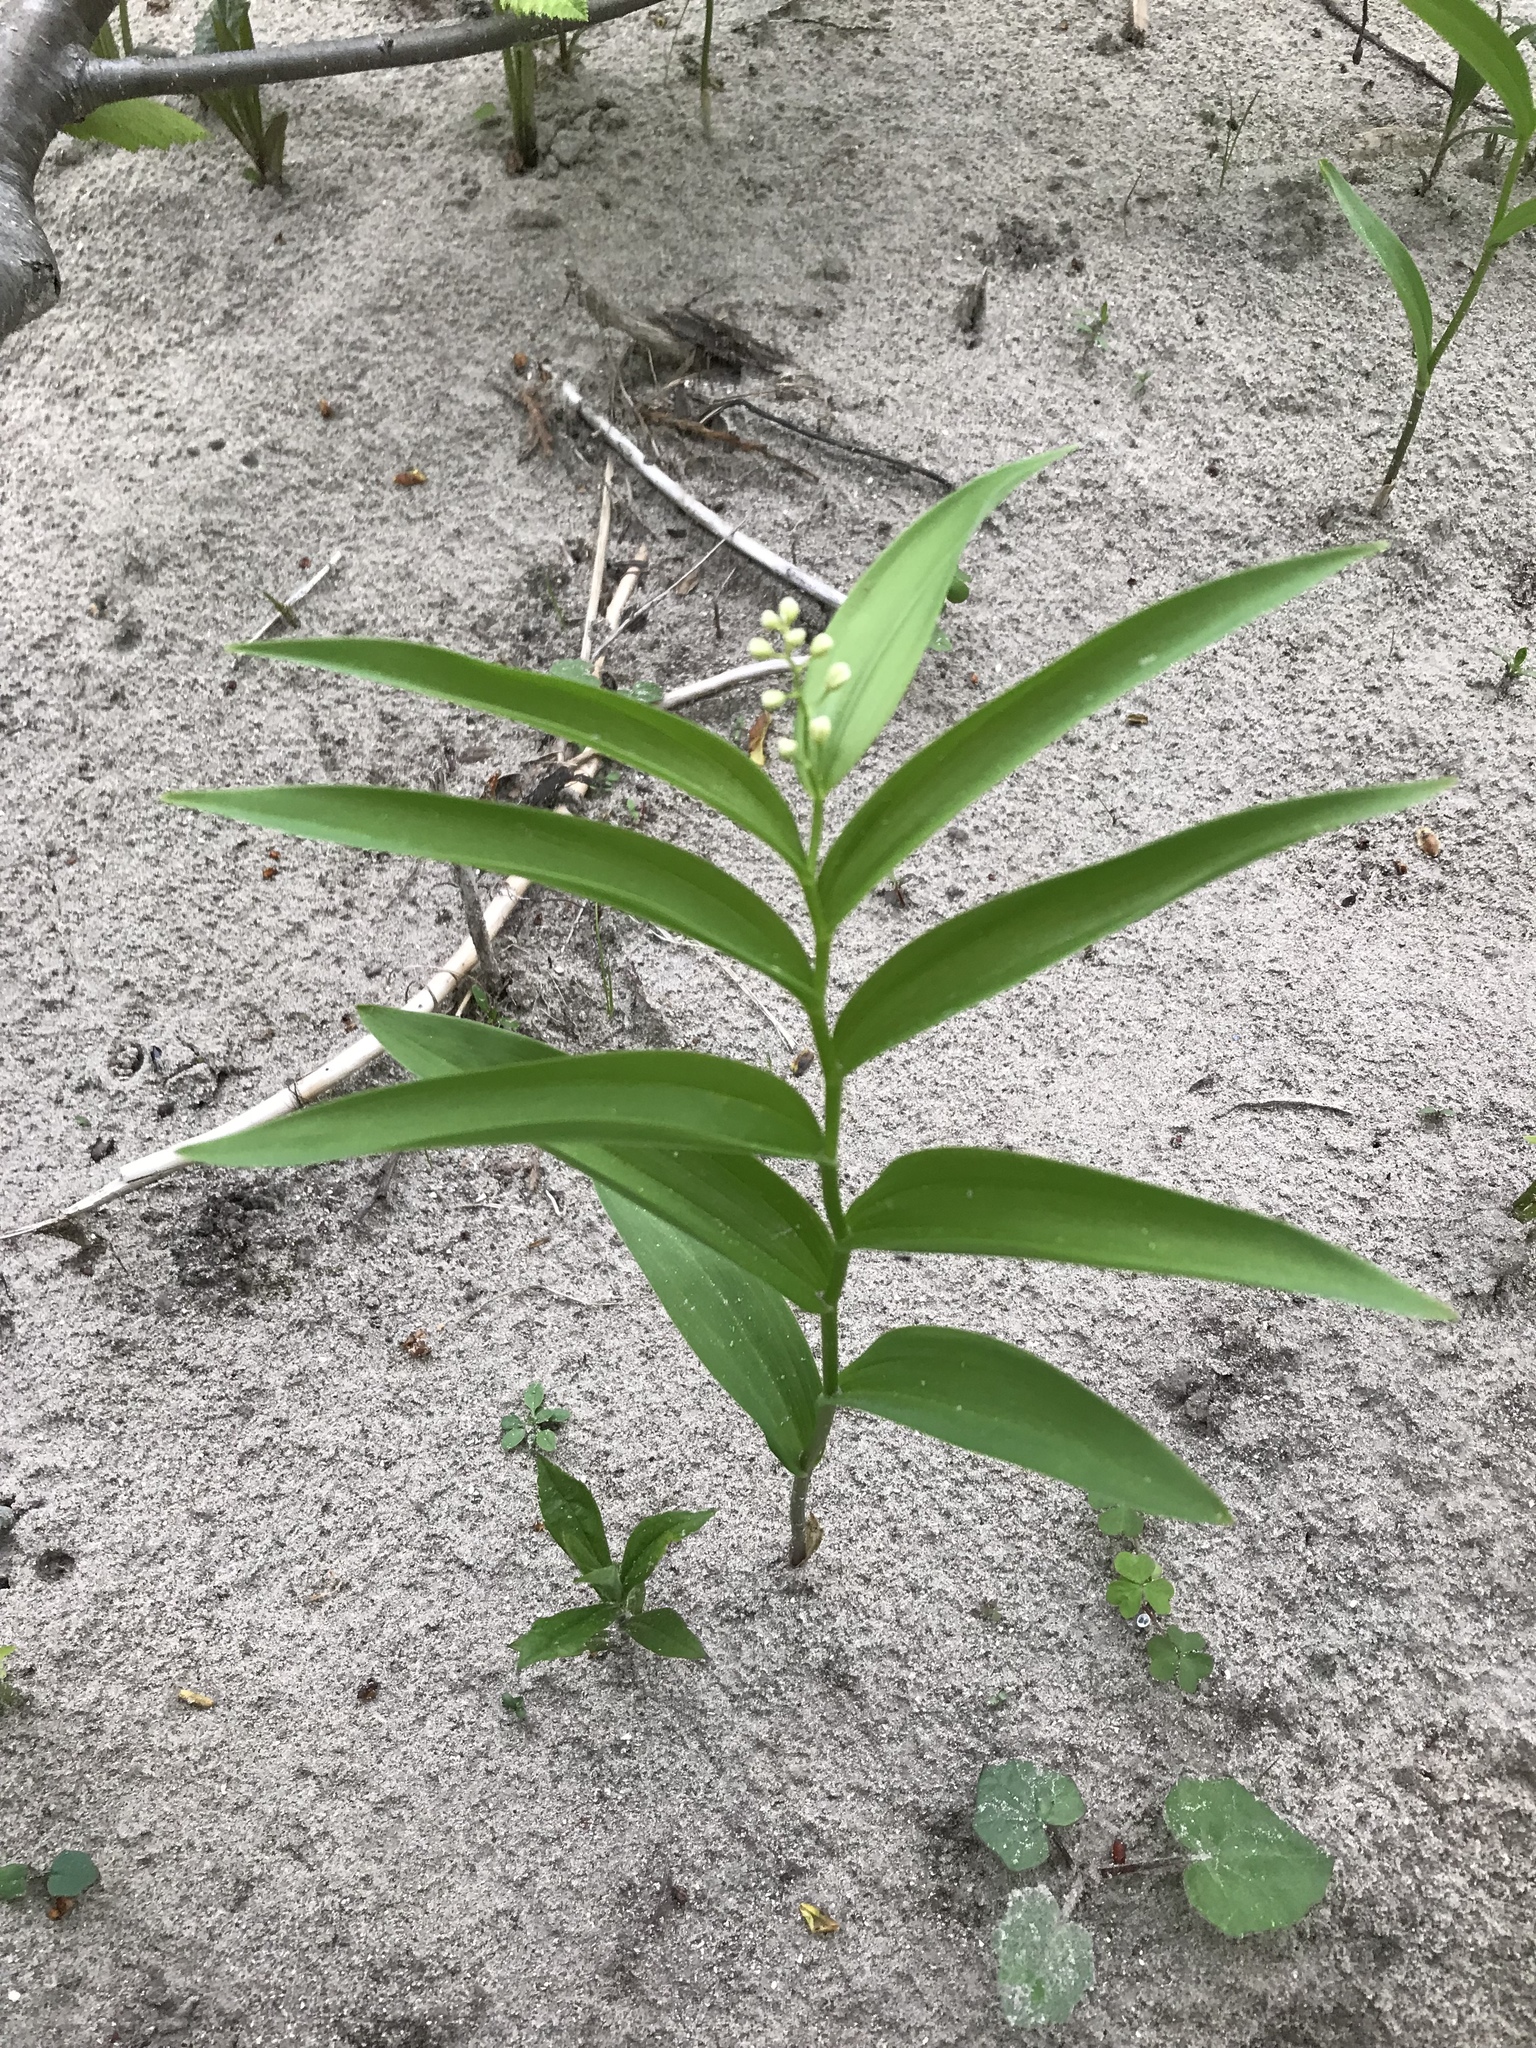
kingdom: Plantae
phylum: Tracheophyta
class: Liliopsida
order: Asparagales
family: Asparagaceae
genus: Maianthemum
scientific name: Maianthemum stellatum
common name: Little false solomon's seal
